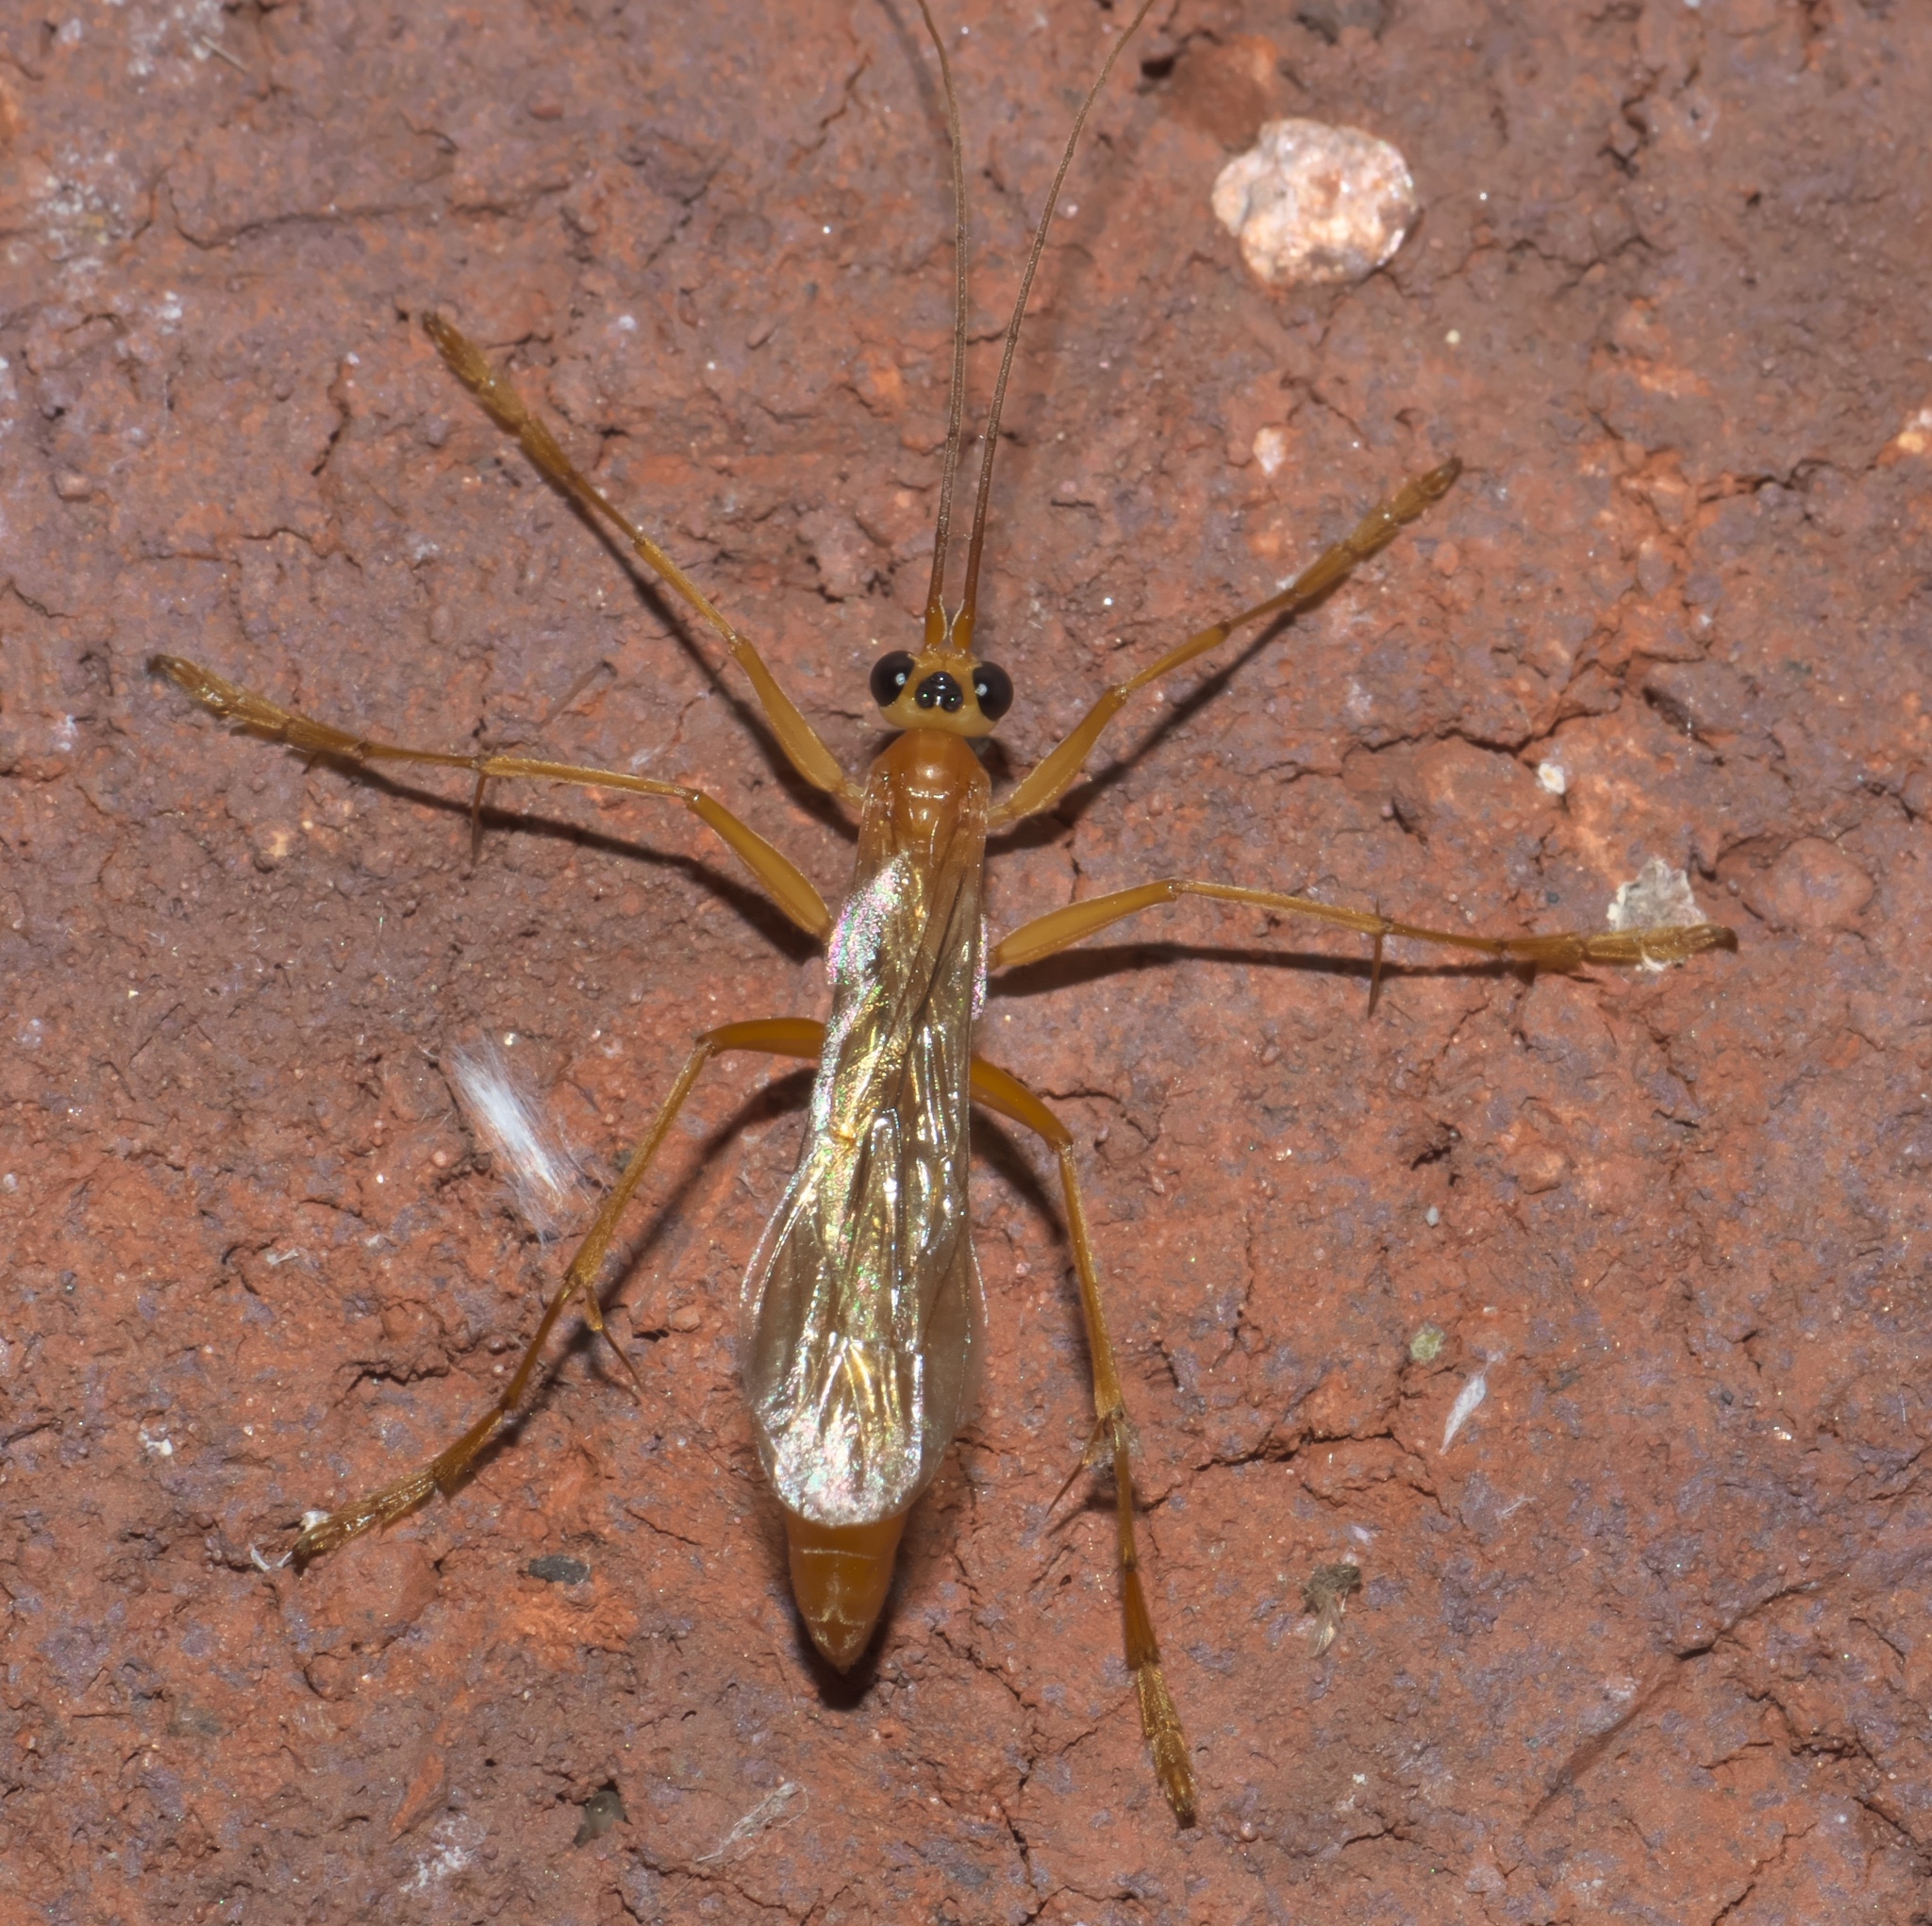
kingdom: Animalia
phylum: Arthropoda
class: Insecta
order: Hymenoptera
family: Rhopalosomatidae
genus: Rhopalosoma
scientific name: Rhopalosoma nearcticum
